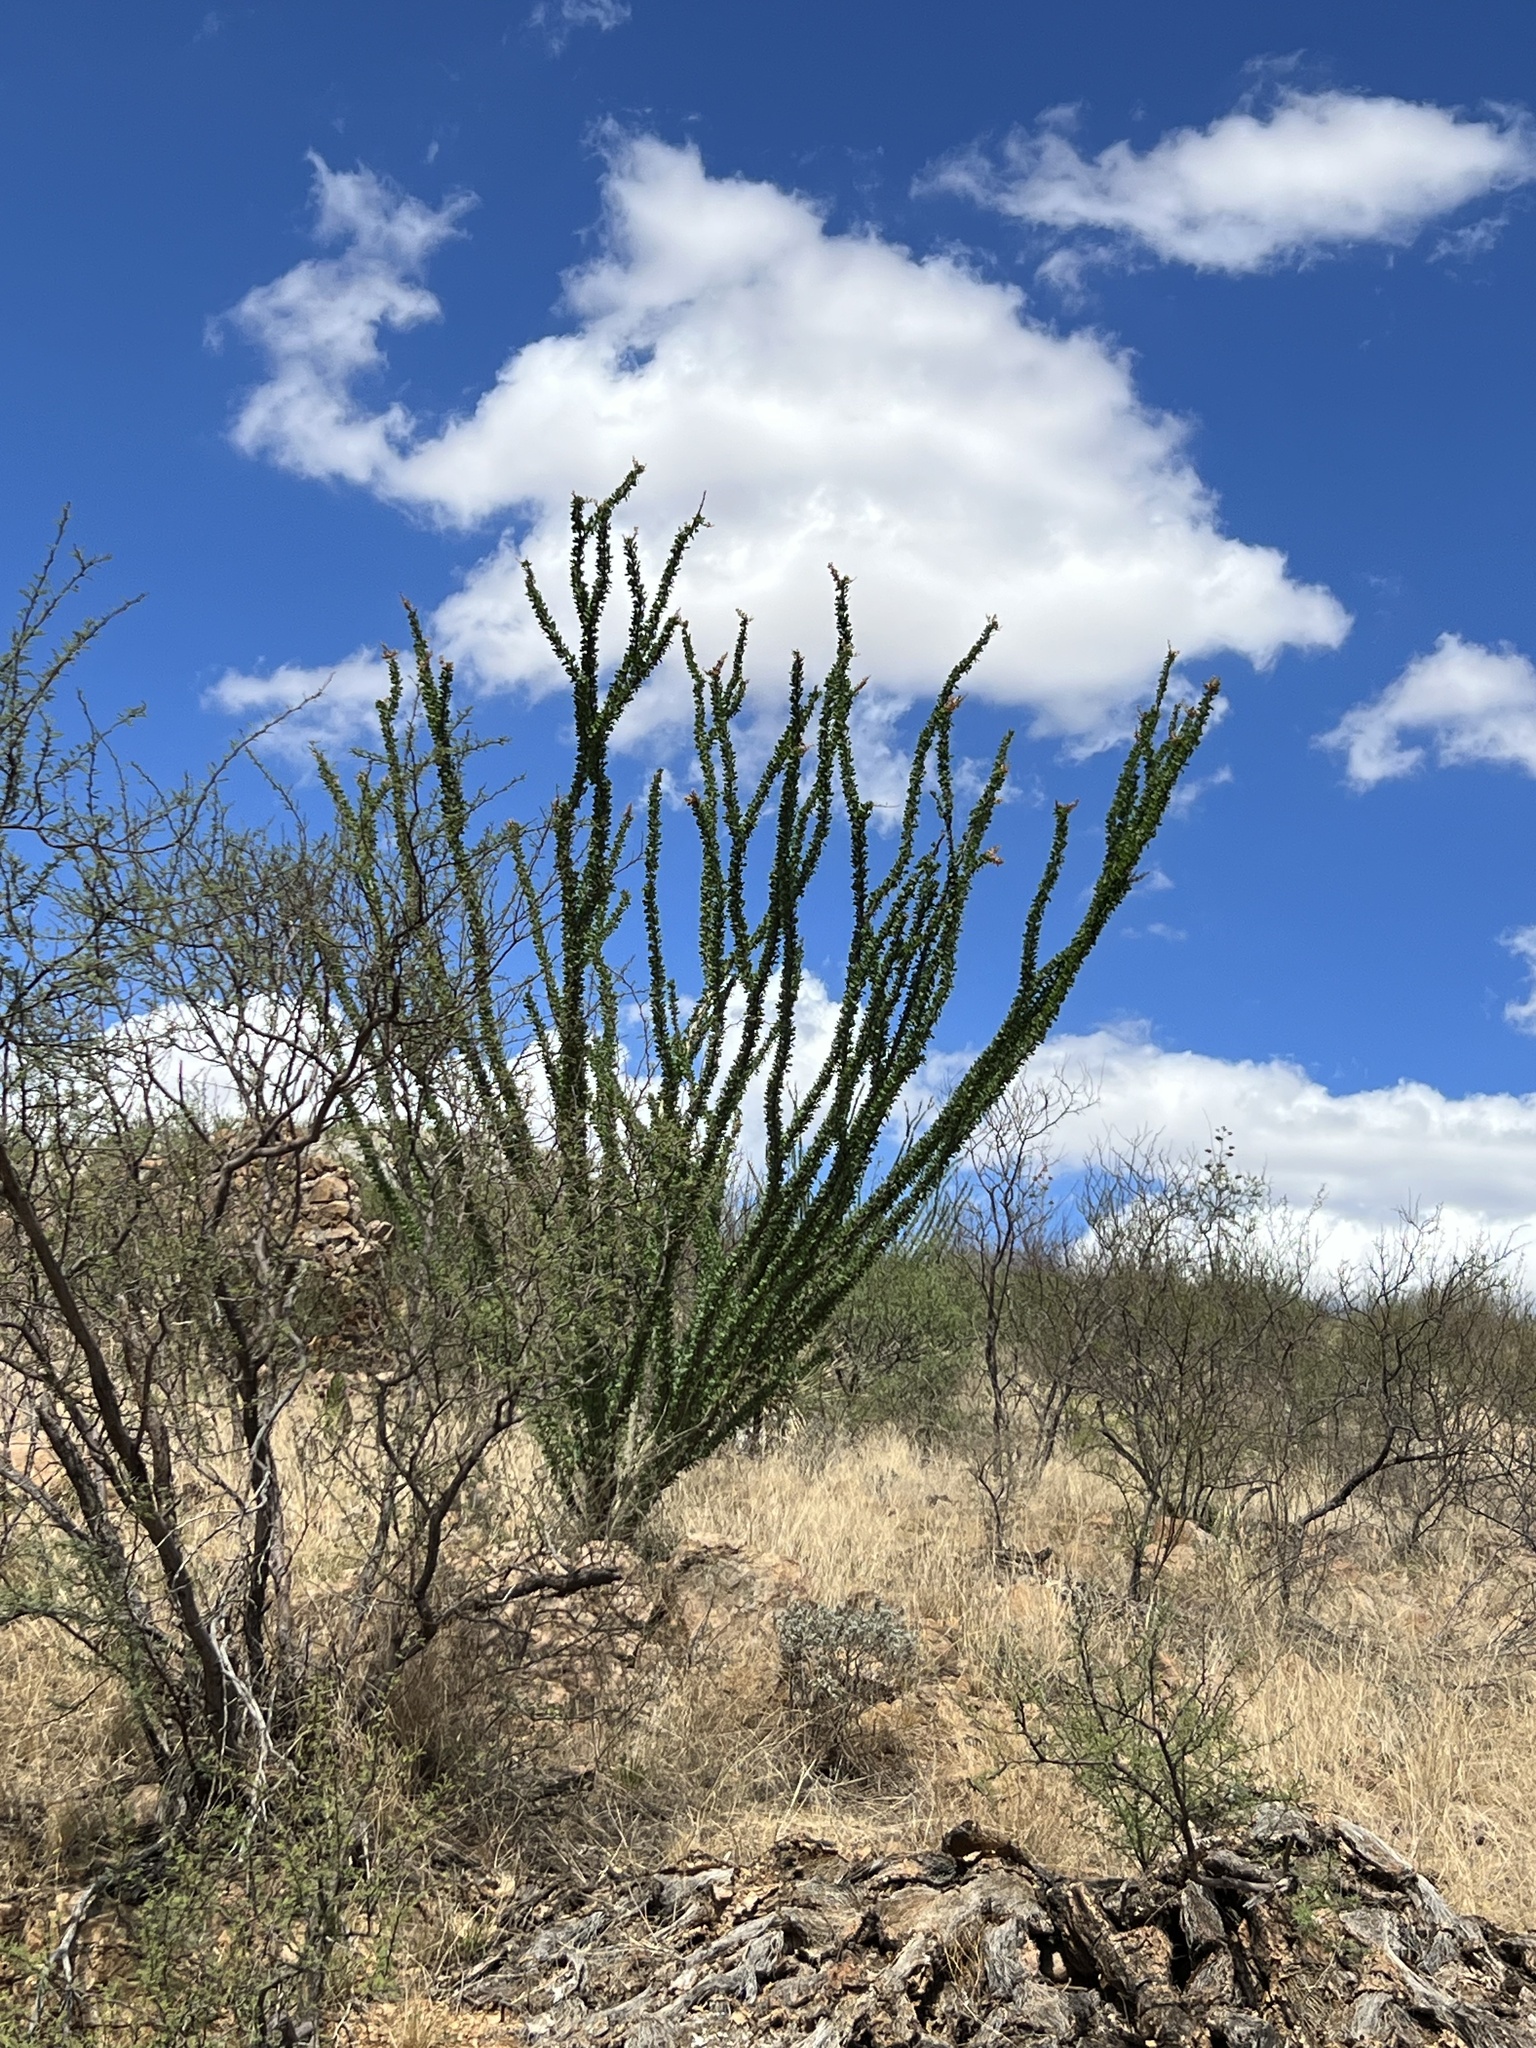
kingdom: Plantae
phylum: Tracheophyta
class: Magnoliopsida
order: Ericales
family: Fouquieriaceae
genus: Fouquieria
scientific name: Fouquieria splendens
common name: Vine-cactus
